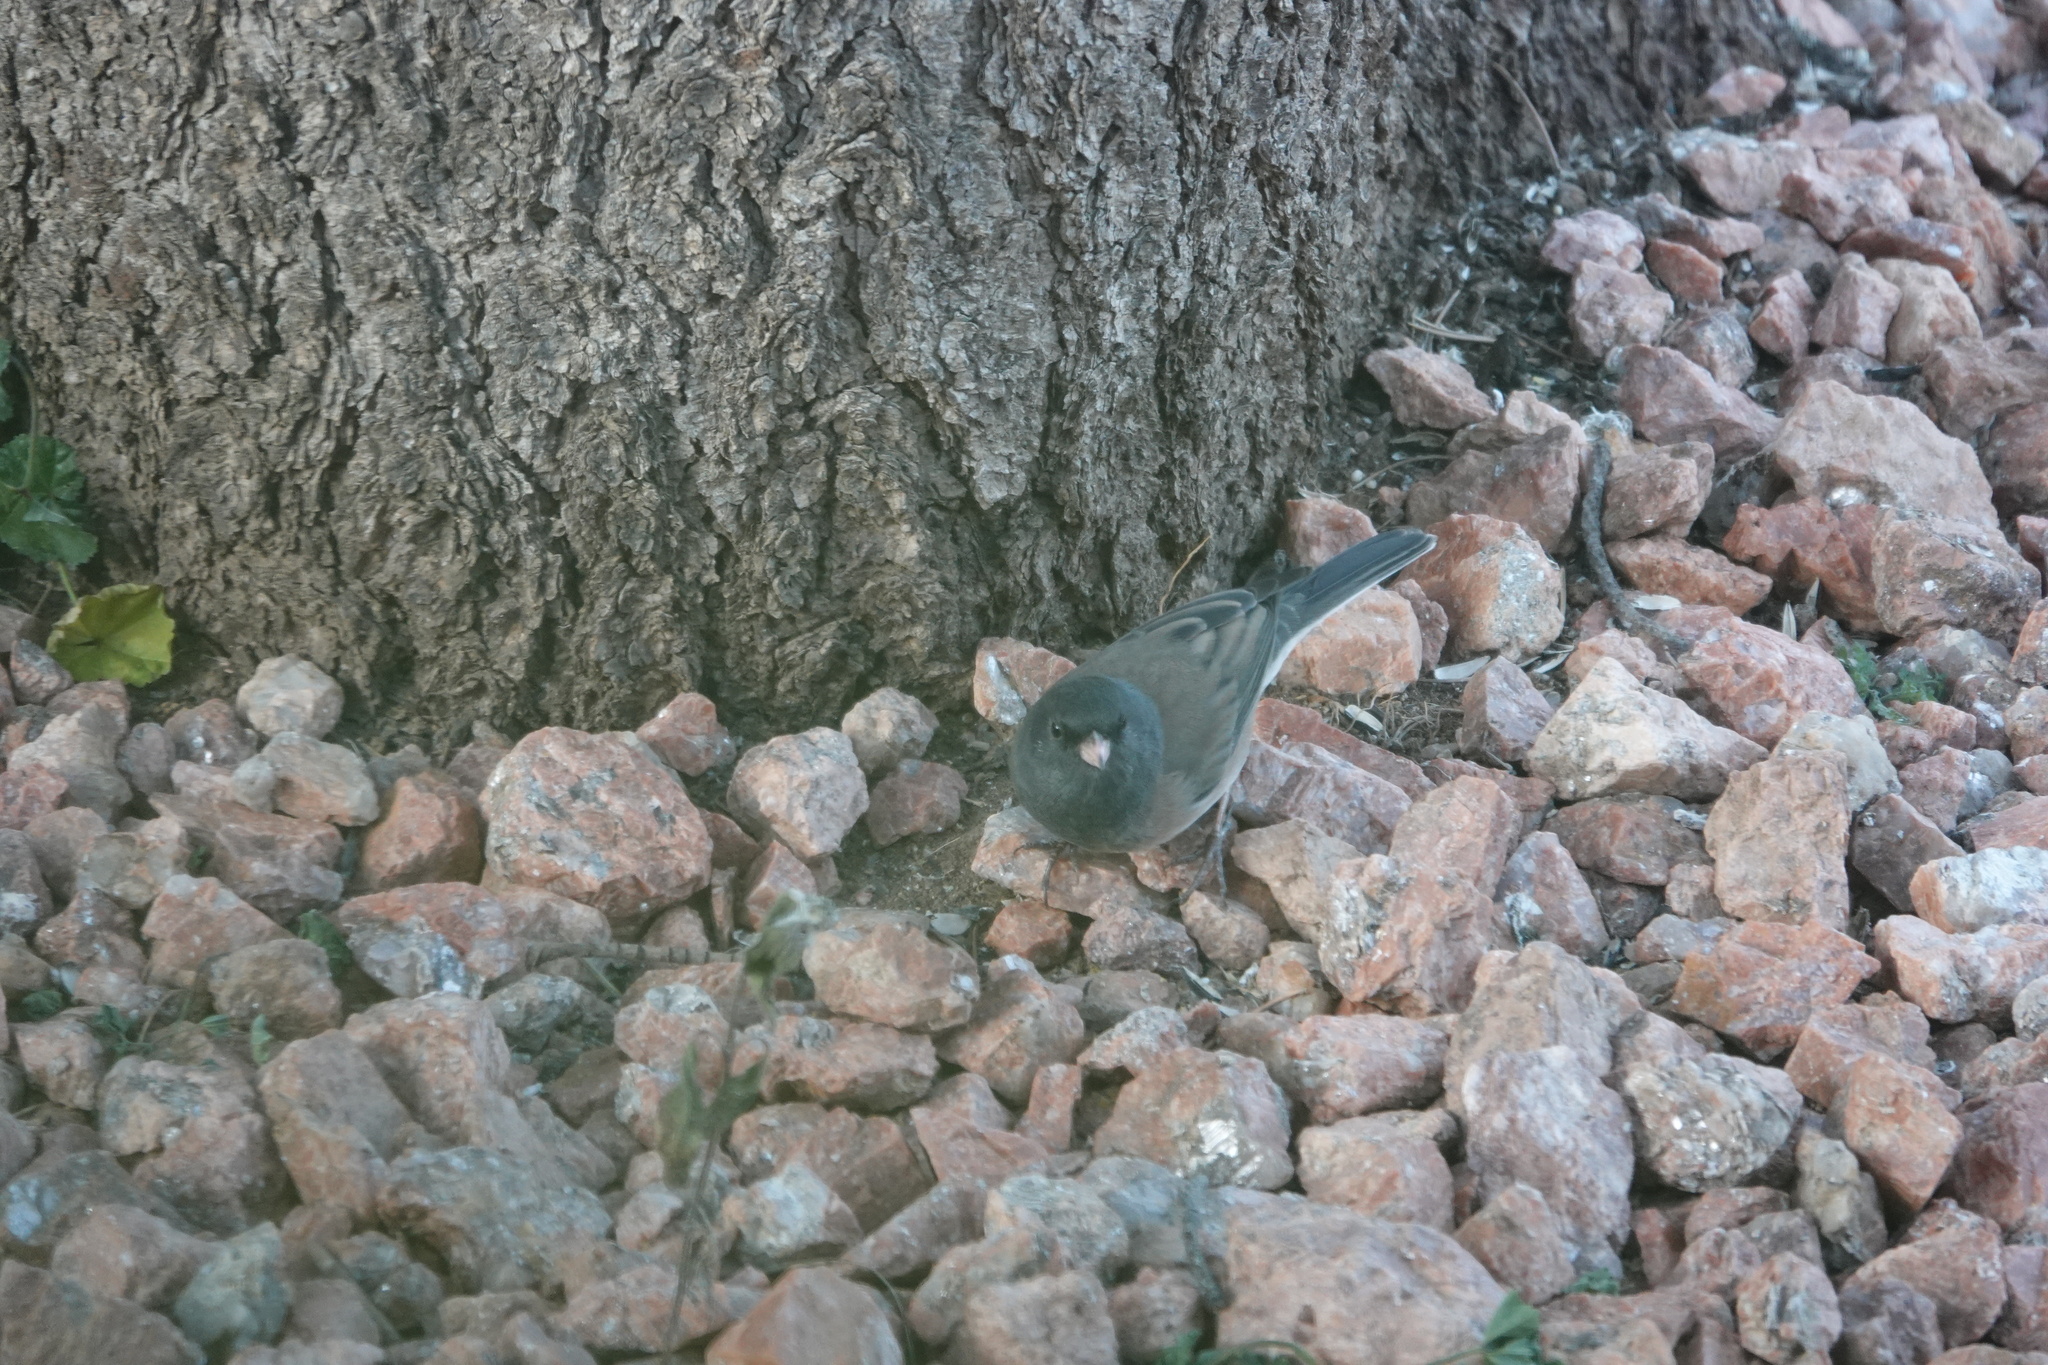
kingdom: Animalia
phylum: Chordata
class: Aves
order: Passeriformes
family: Passerellidae
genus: Junco
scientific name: Junco hyemalis
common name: Dark-eyed junco
